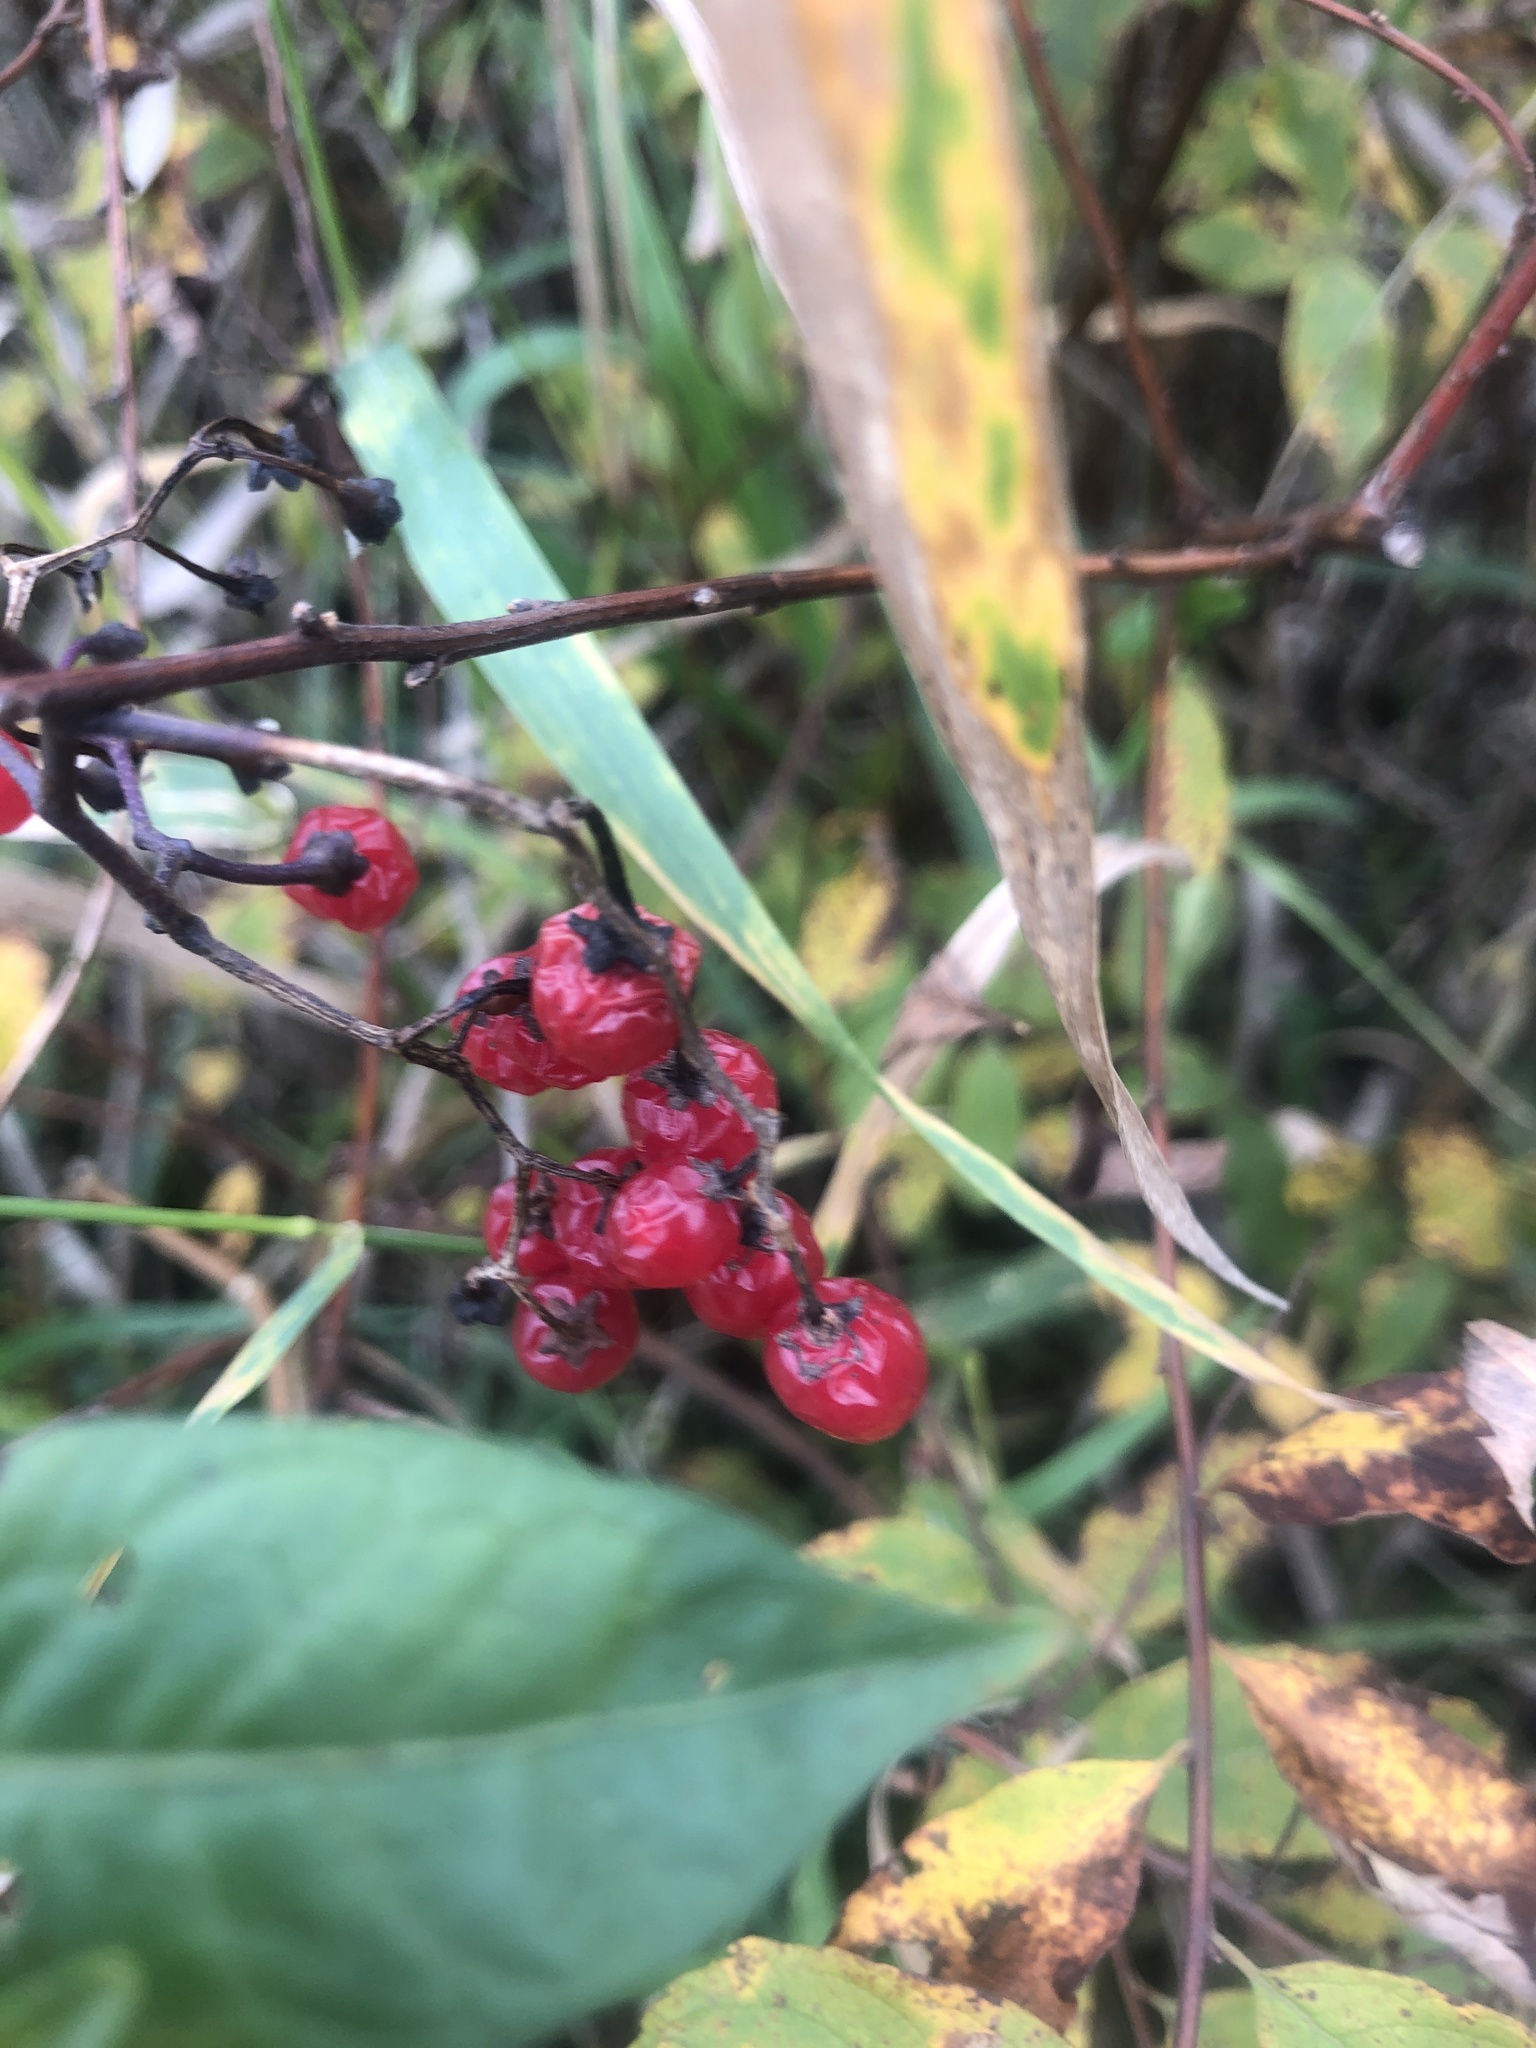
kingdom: Plantae
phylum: Tracheophyta
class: Magnoliopsida
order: Solanales
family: Solanaceae
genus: Solanum
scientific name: Solanum dulcamara
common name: Climbing nightshade
